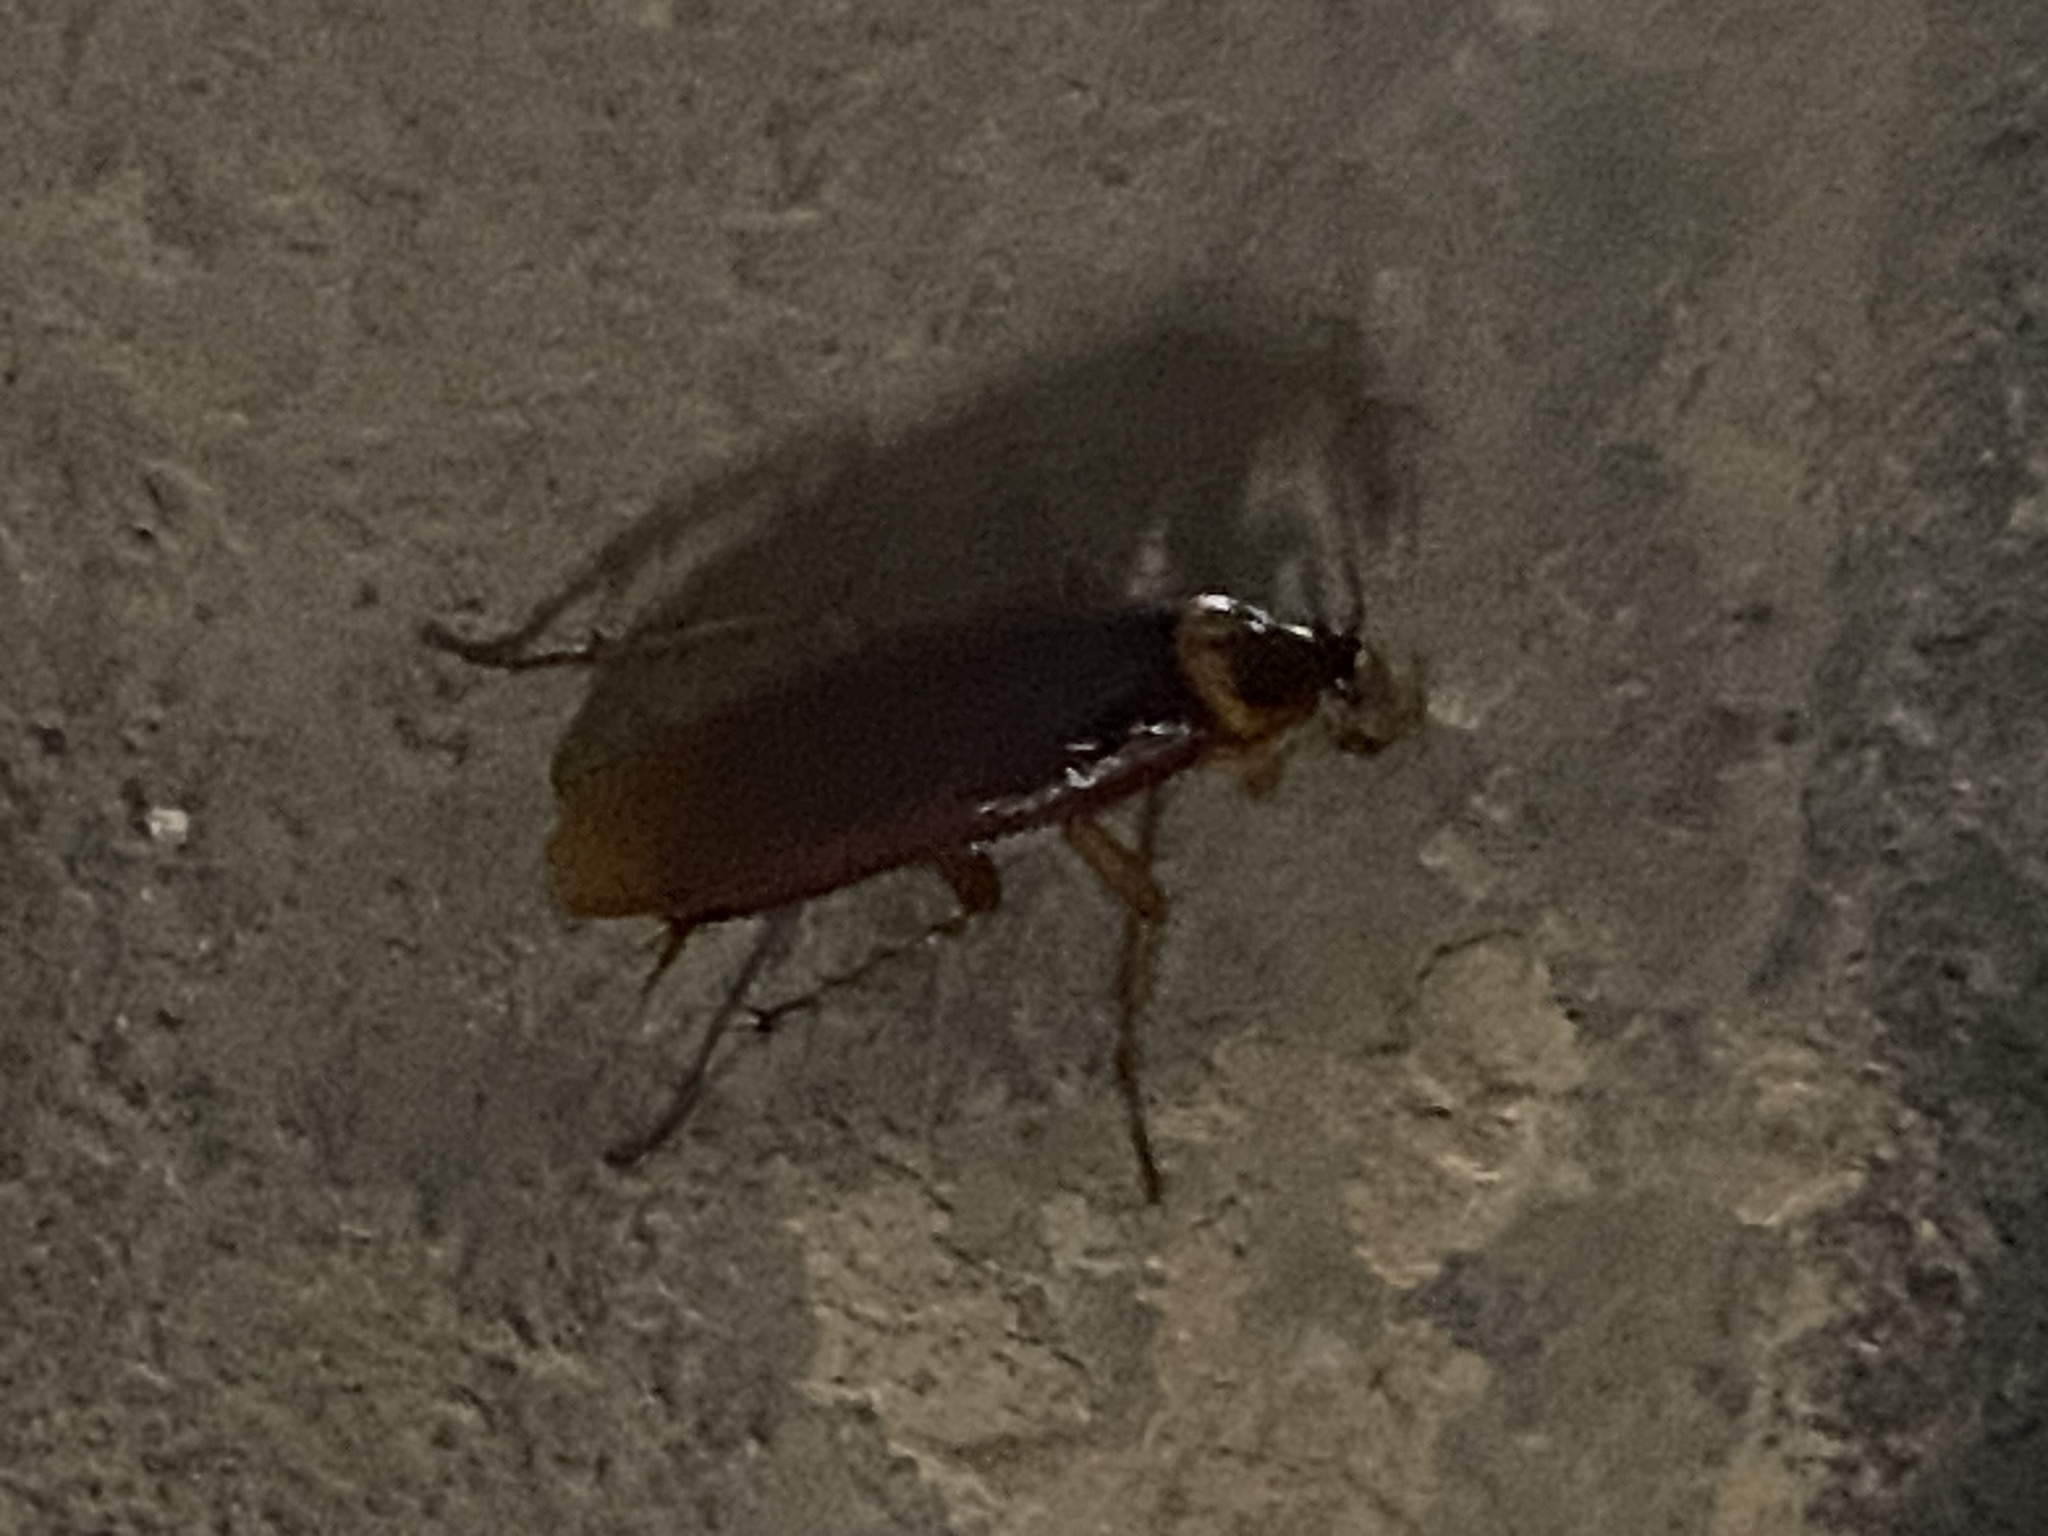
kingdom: Animalia
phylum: Arthropoda
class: Insecta
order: Blattodea
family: Blattidae
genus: Periplaneta
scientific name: Periplaneta americana
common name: American cockroach
